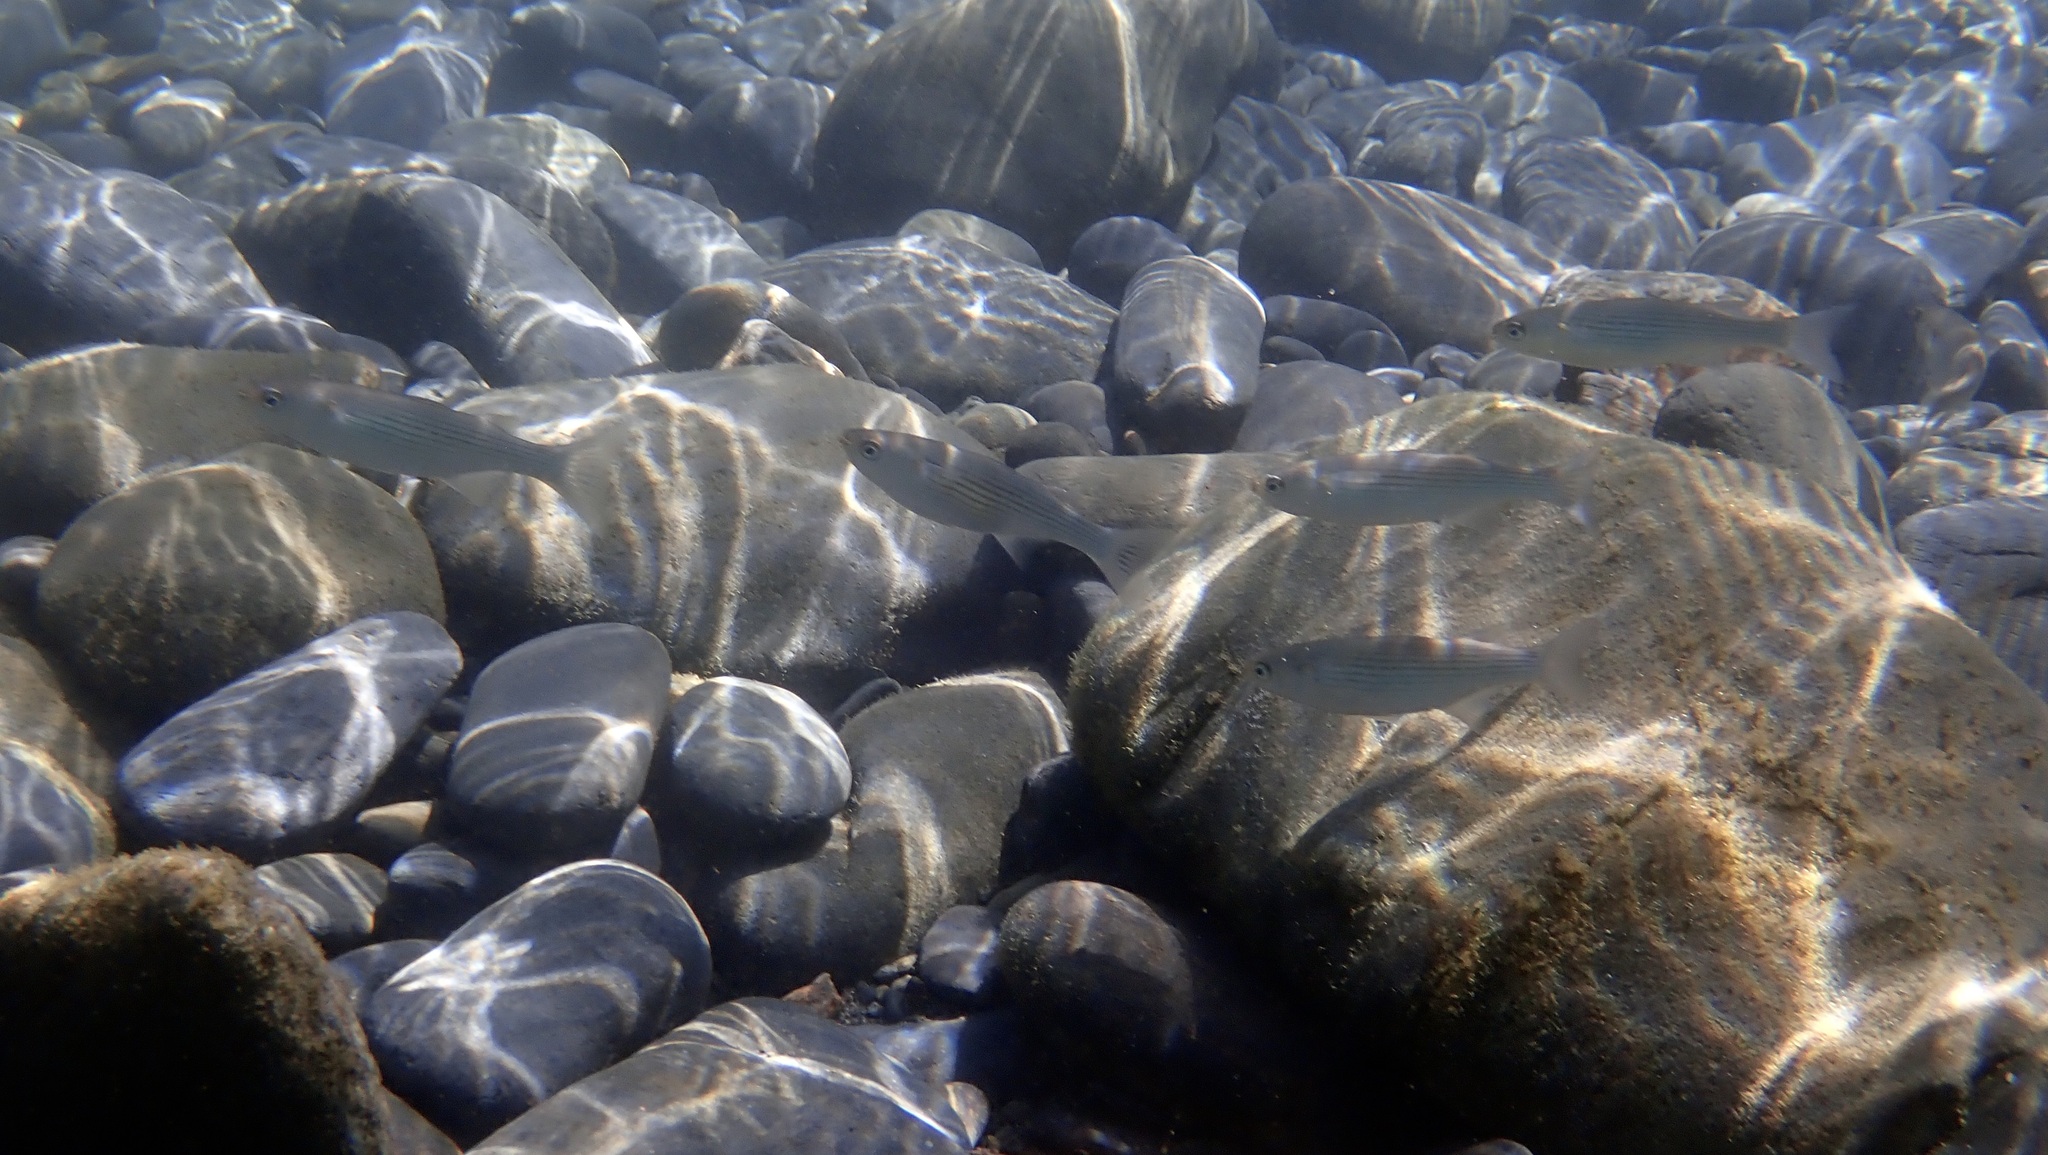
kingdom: Animalia
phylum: Chordata
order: Mugiliformes
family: Mugilidae
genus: Oedalechilus
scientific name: Oedalechilus labeo
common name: Boxlip mullet
